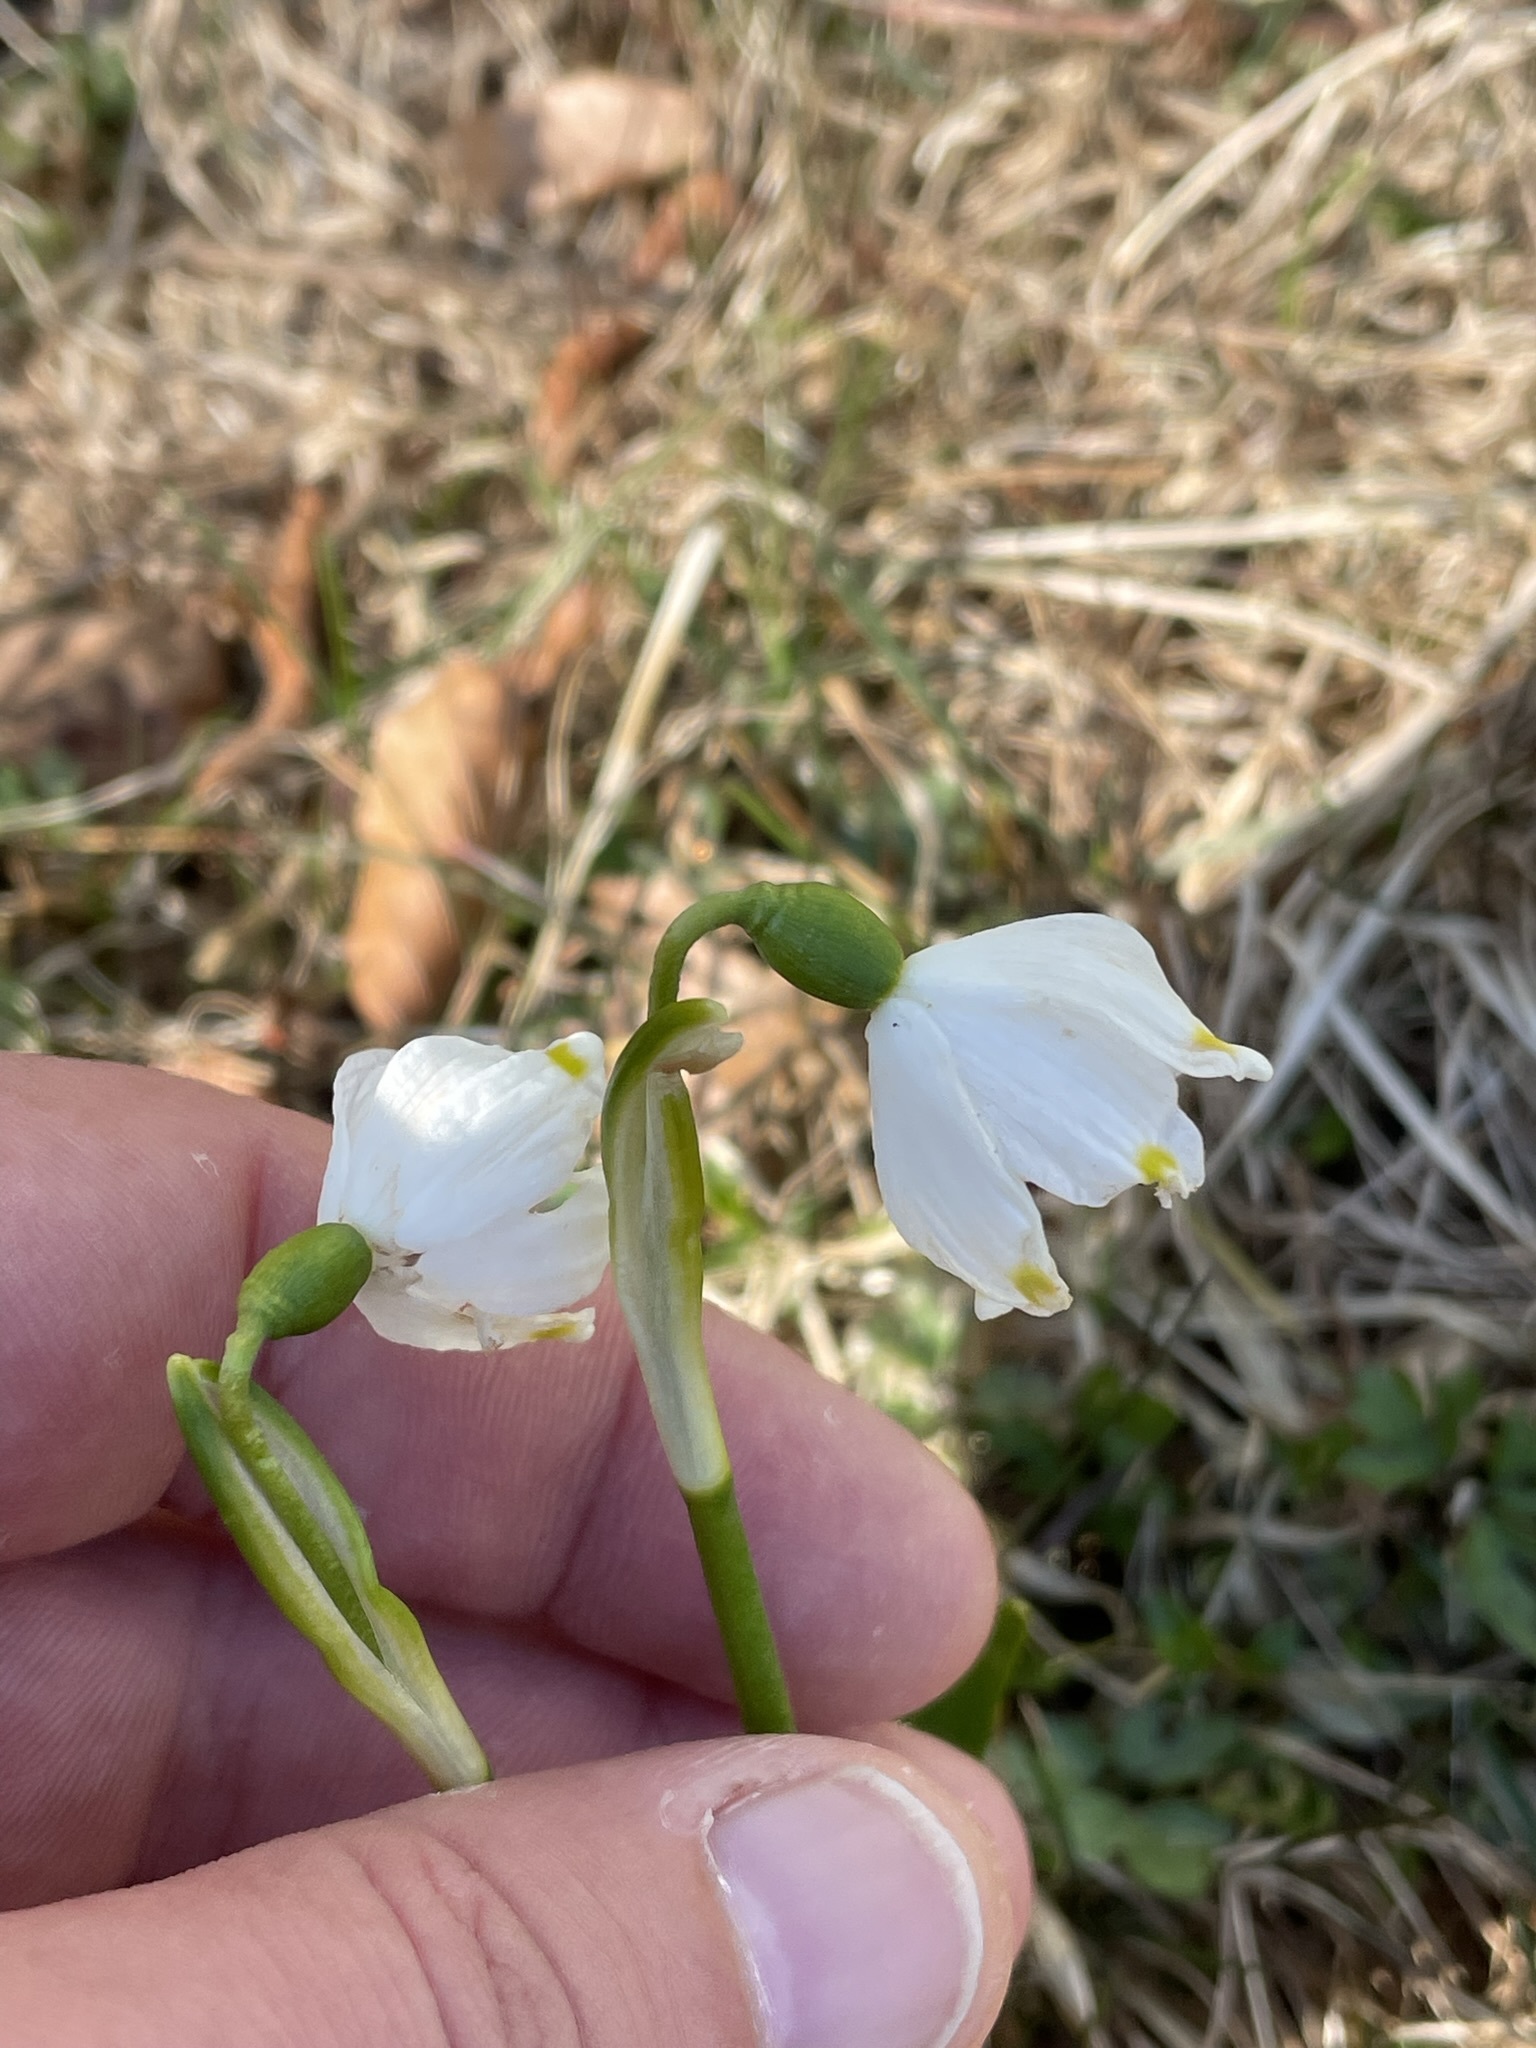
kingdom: Plantae
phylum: Tracheophyta
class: Liliopsida
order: Asparagales
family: Amaryllidaceae
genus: Leucojum
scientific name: Leucojum vernum
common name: Spring snowflake
